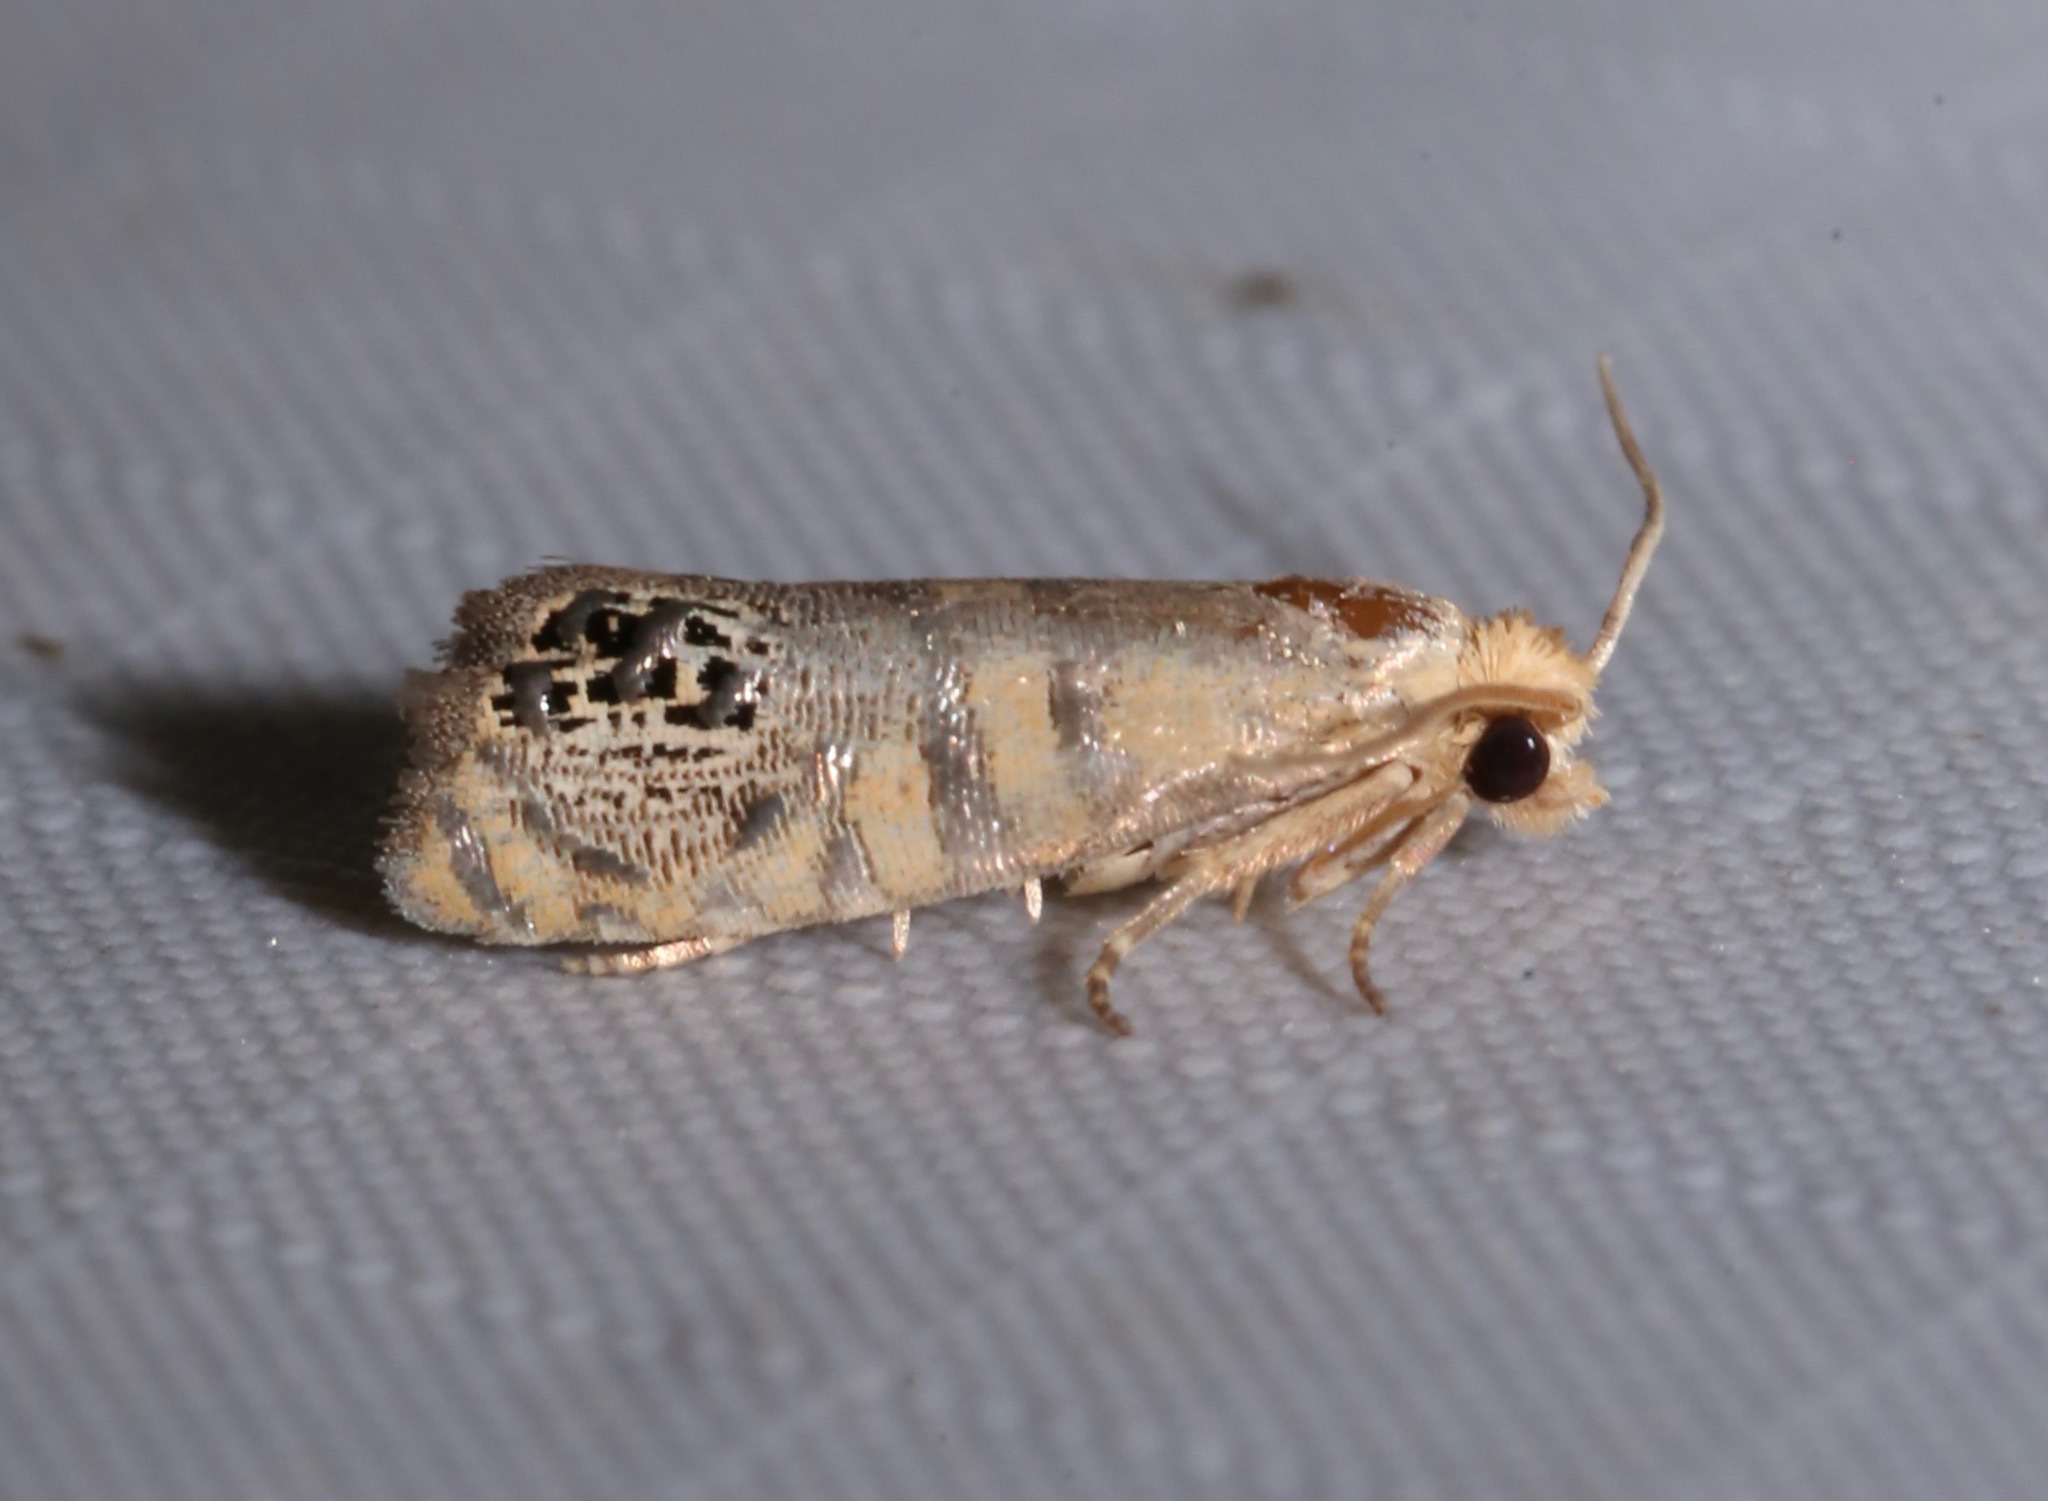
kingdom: Animalia
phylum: Arthropoda
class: Insecta
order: Lepidoptera
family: Tortricidae
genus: Pelochrista
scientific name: Pelochrista fraudabilis
